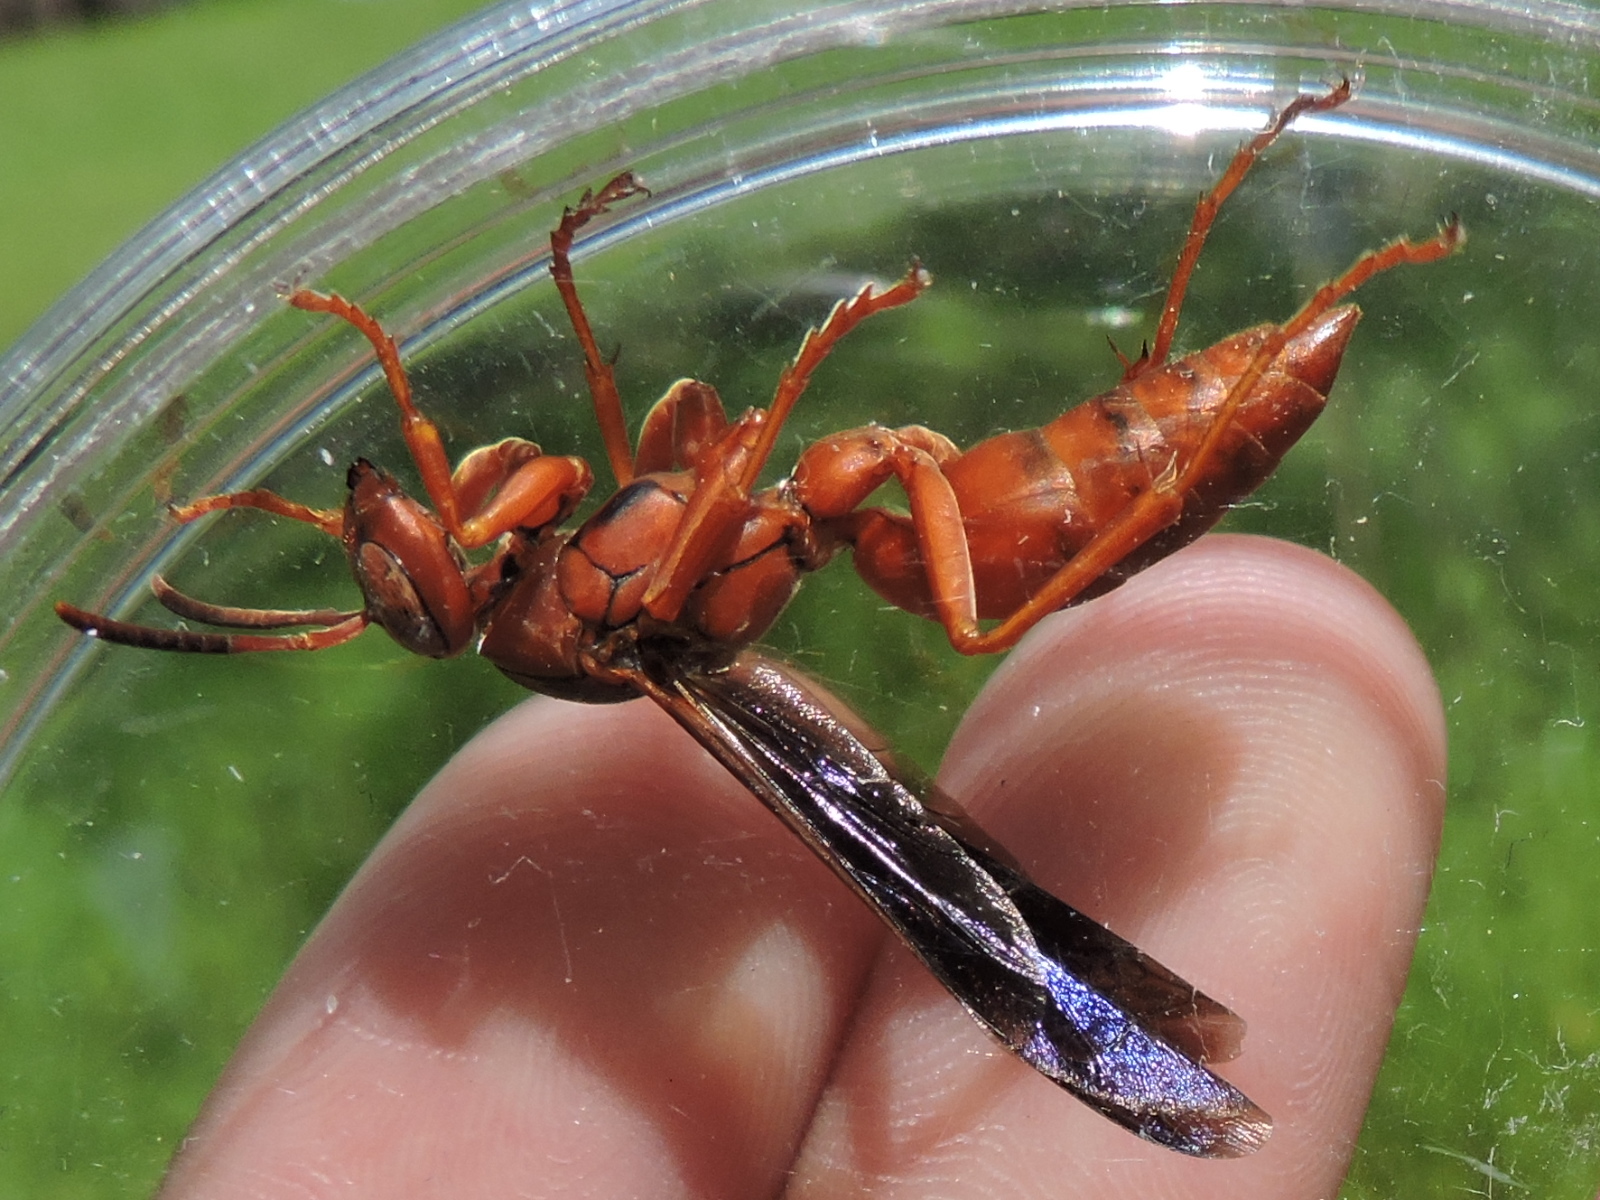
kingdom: Animalia
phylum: Arthropoda
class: Insecta
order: Hymenoptera
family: Eumenidae
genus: Polistes
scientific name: Polistes carolina
